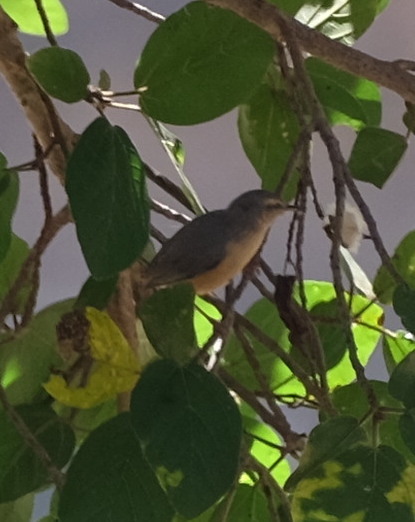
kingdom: Animalia
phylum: Chordata
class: Aves
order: Passeriformes
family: Macrosphenidae
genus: Sylvietta
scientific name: Sylvietta rufescens
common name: Long-billed crombec
